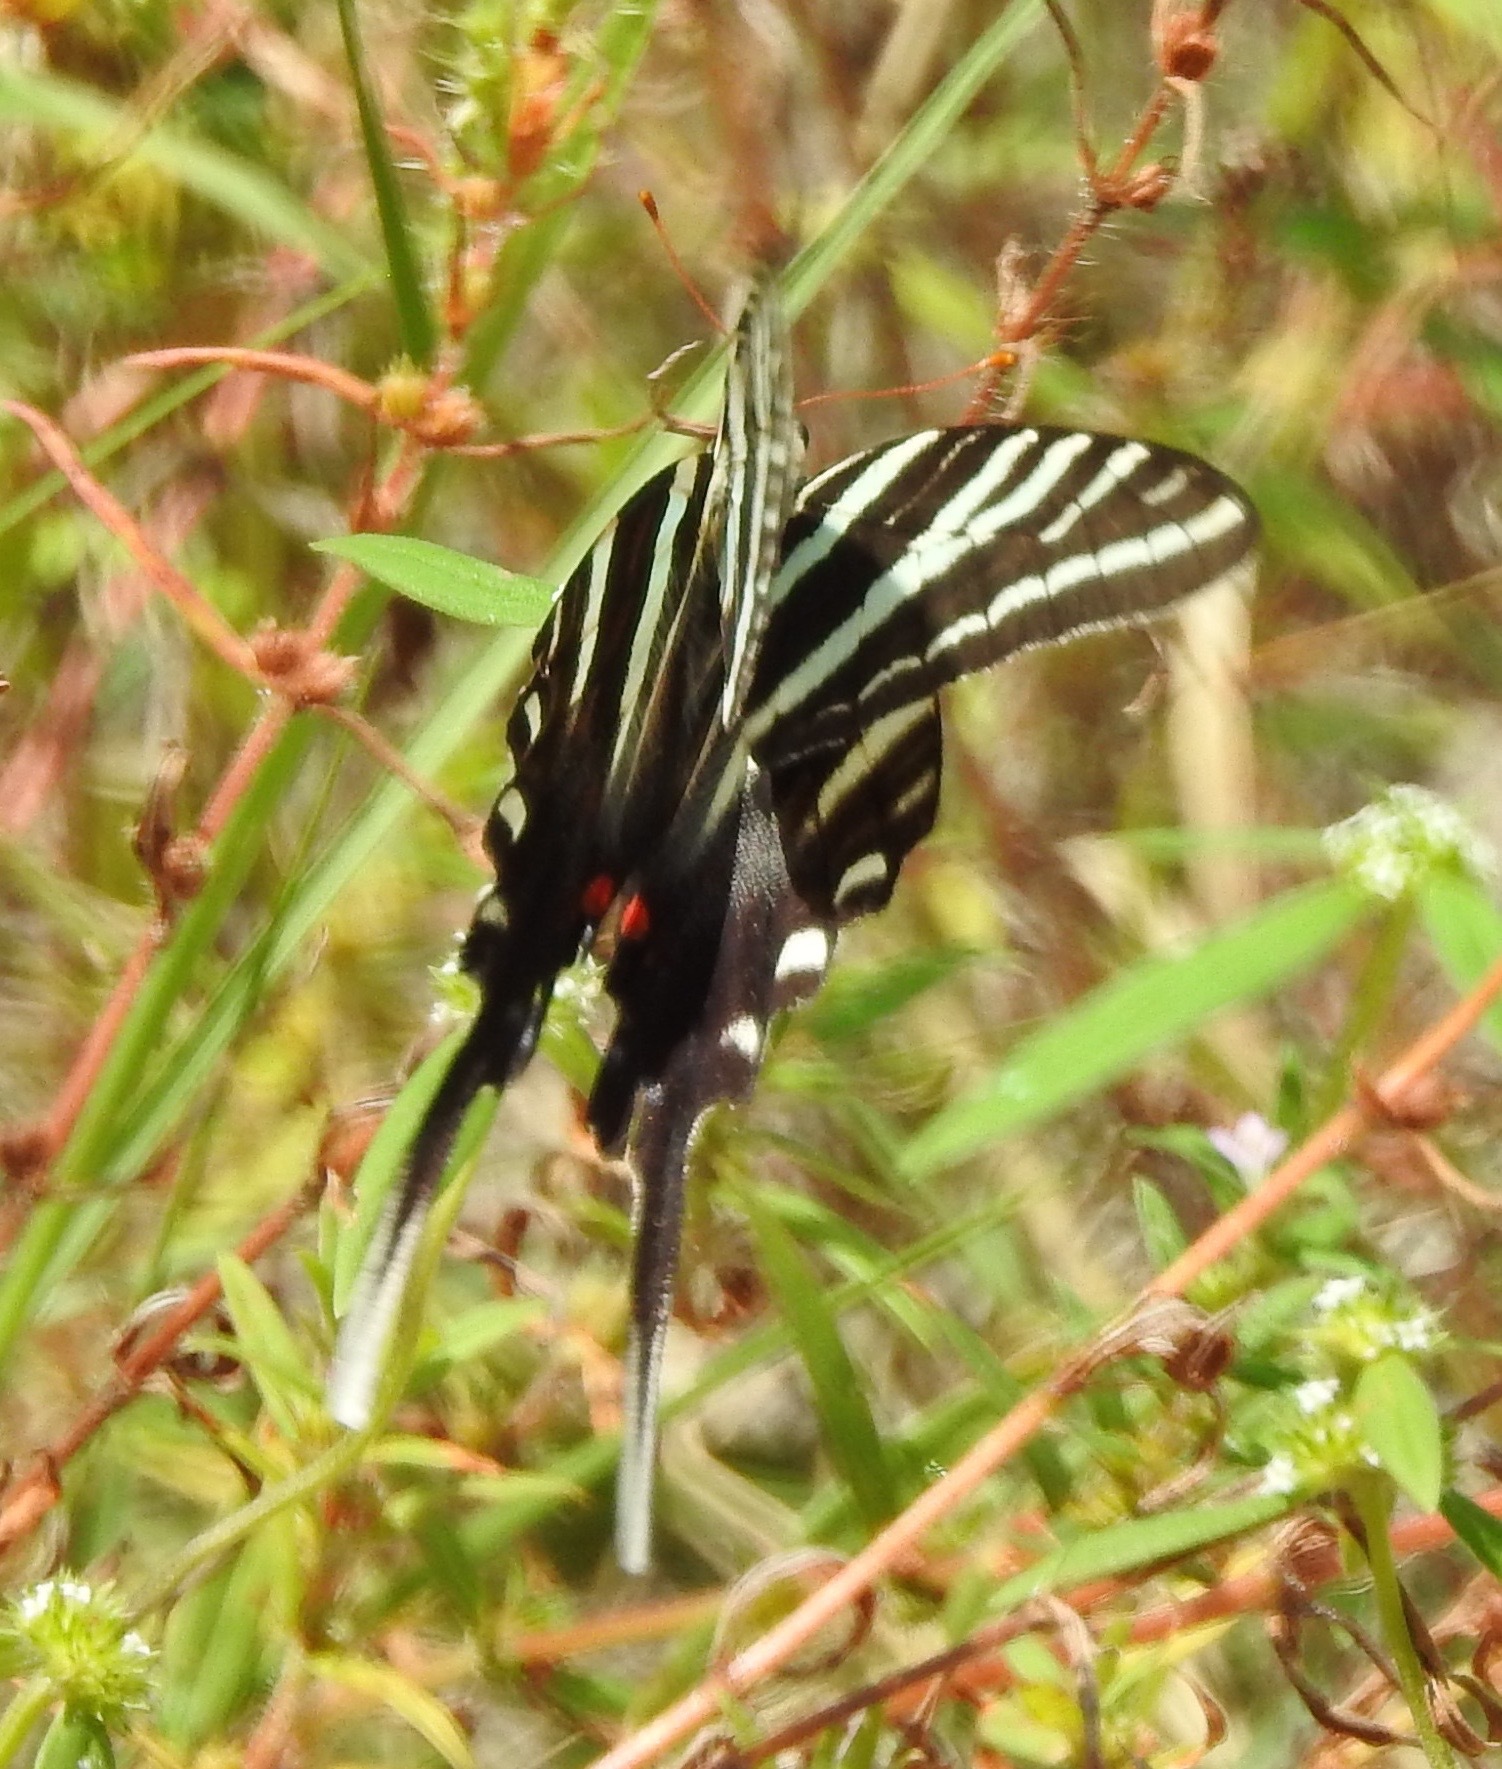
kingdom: Animalia
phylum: Arthropoda
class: Insecta
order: Lepidoptera
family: Papilionidae
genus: Protographium
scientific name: Protographium marcellus
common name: Zebra swallowtail
